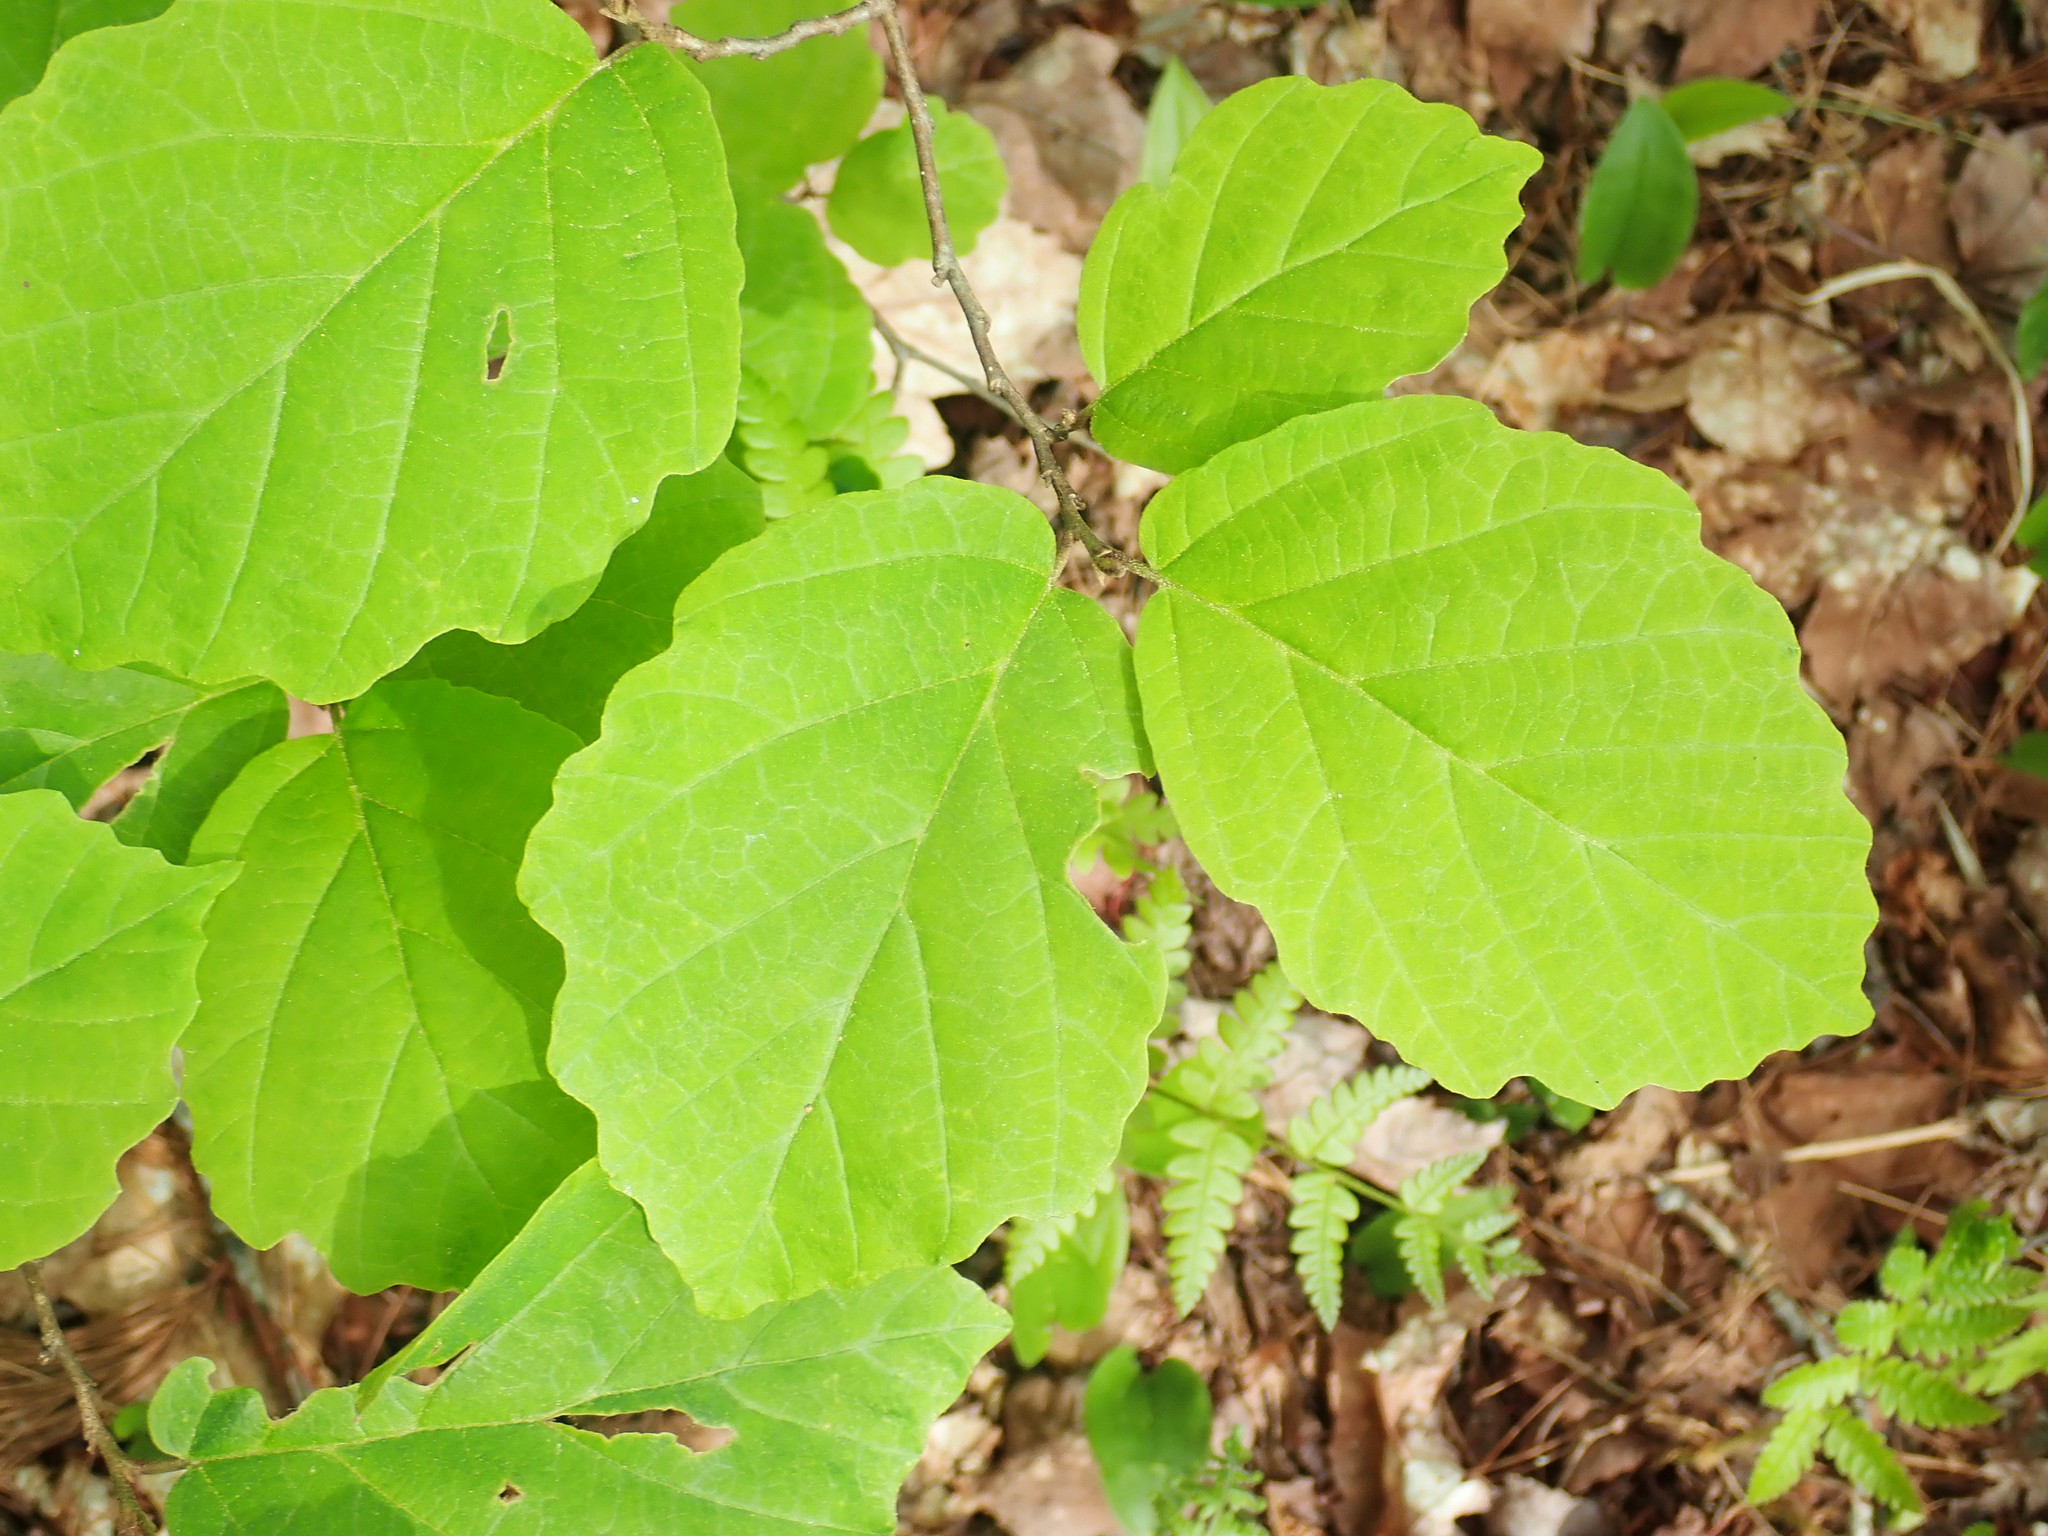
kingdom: Plantae
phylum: Tracheophyta
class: Magnoliopsida
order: Saxifragales
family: Hamamelidaceae
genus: Hamamelis
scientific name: Hamamelis virginiana
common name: Witch-hazel
